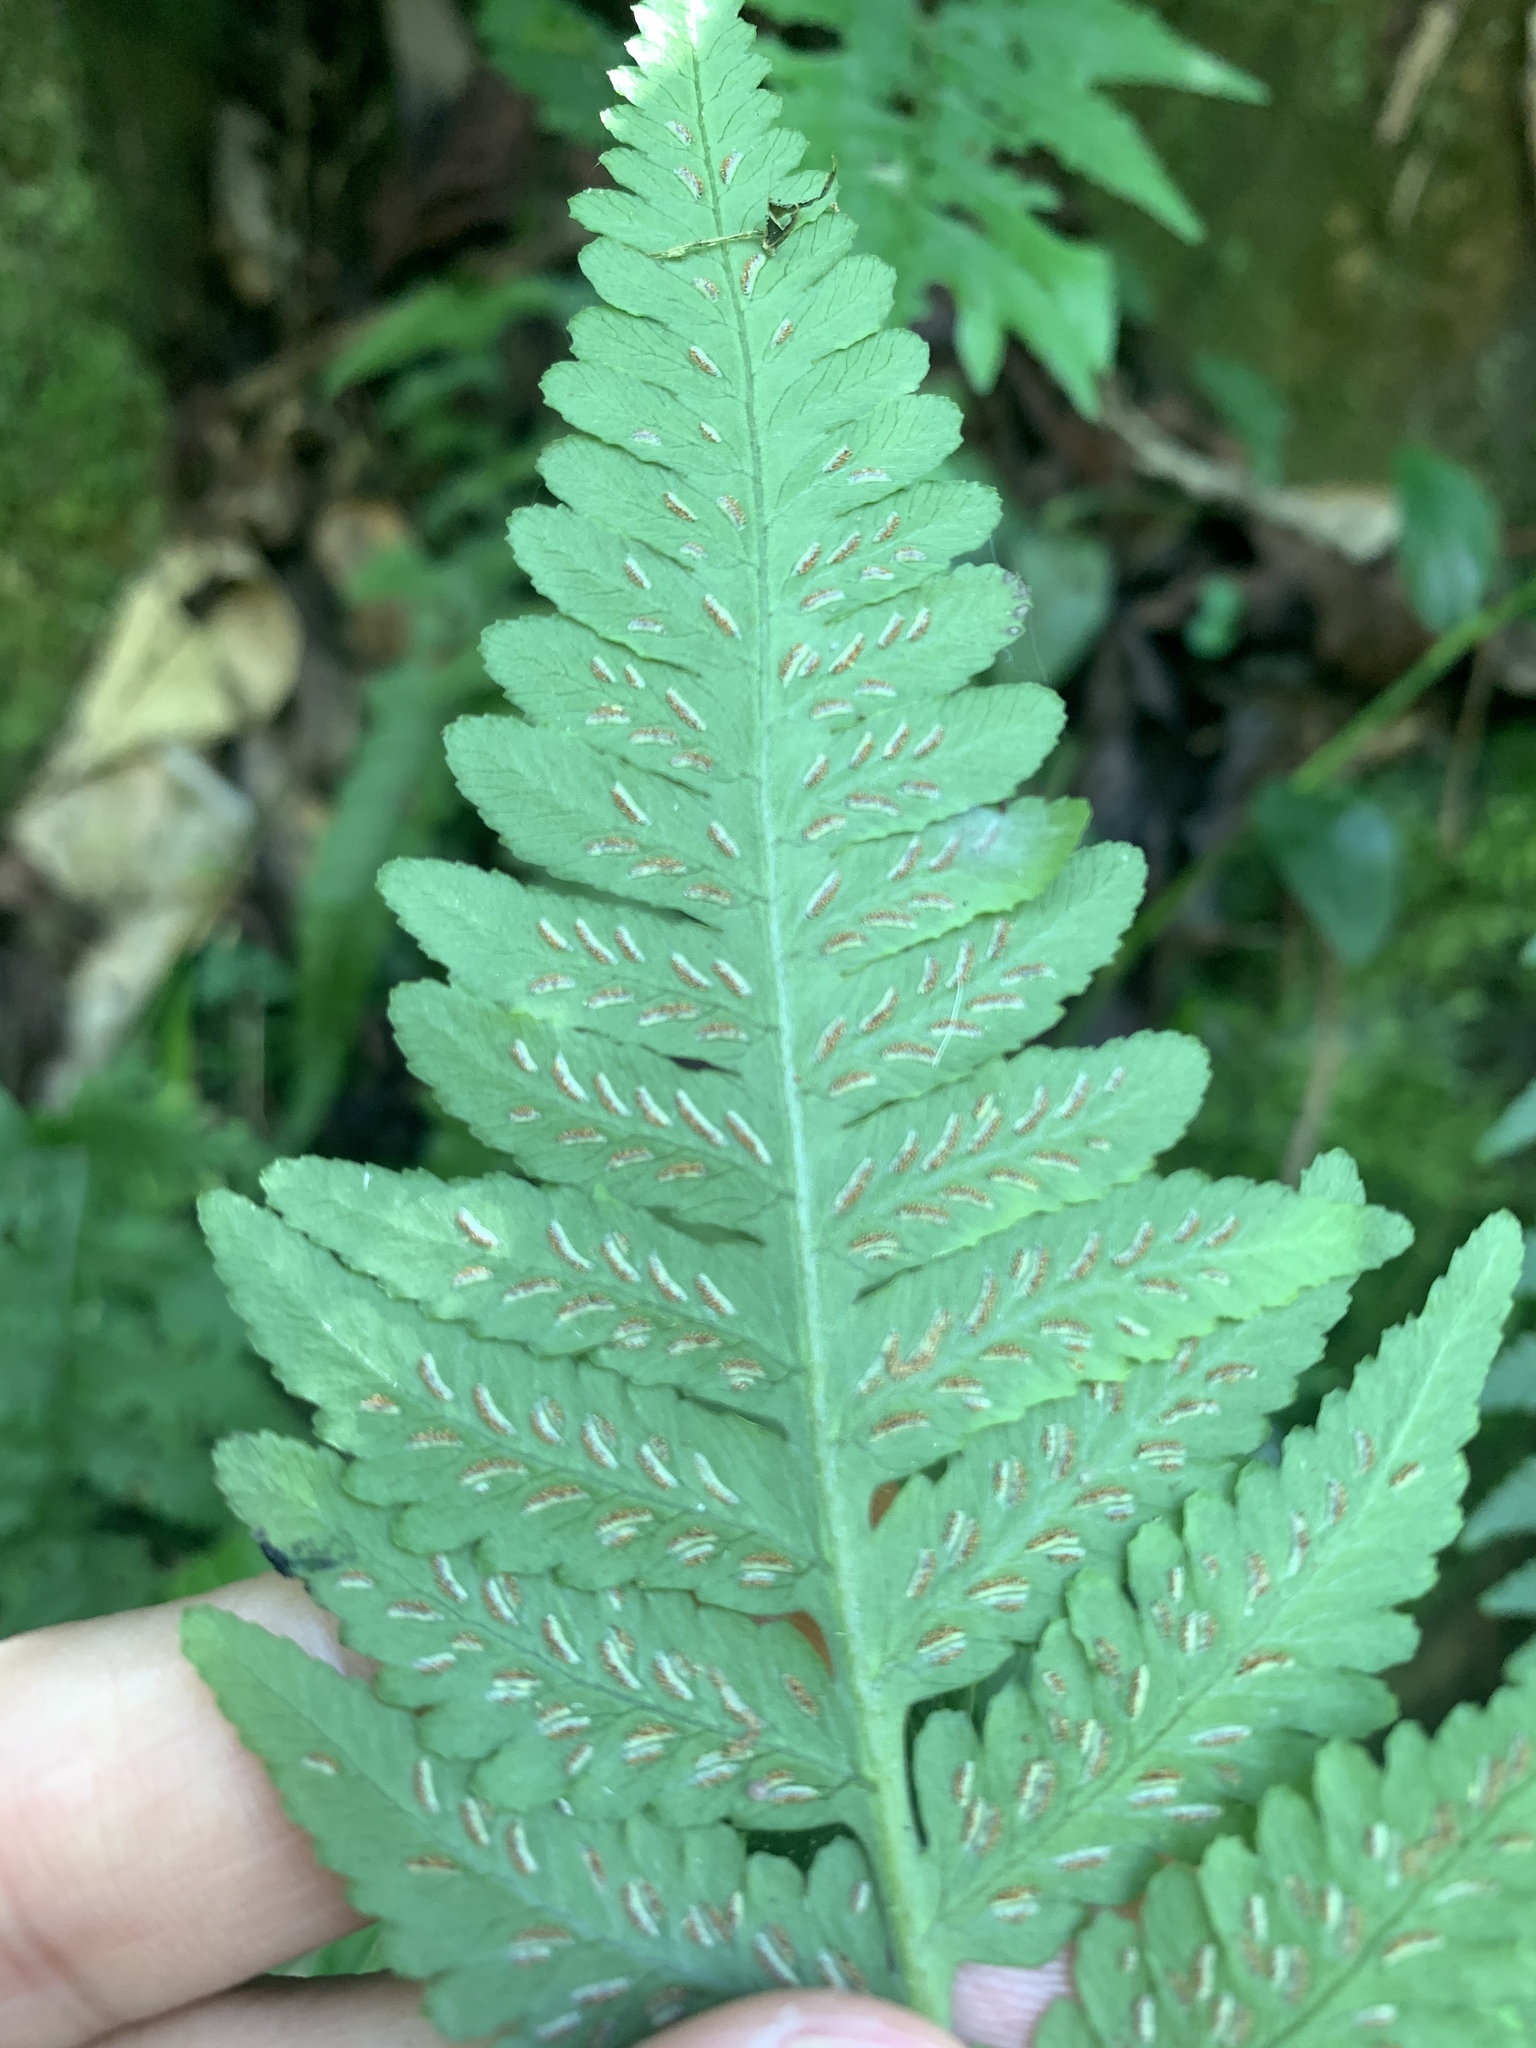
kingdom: Plantae
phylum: Tracheophyta
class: Polypodiopsida
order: Polypodiales
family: Athyriaceae
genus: Deparia
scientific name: Deparia petersenii
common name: Japanese false spleenwort
